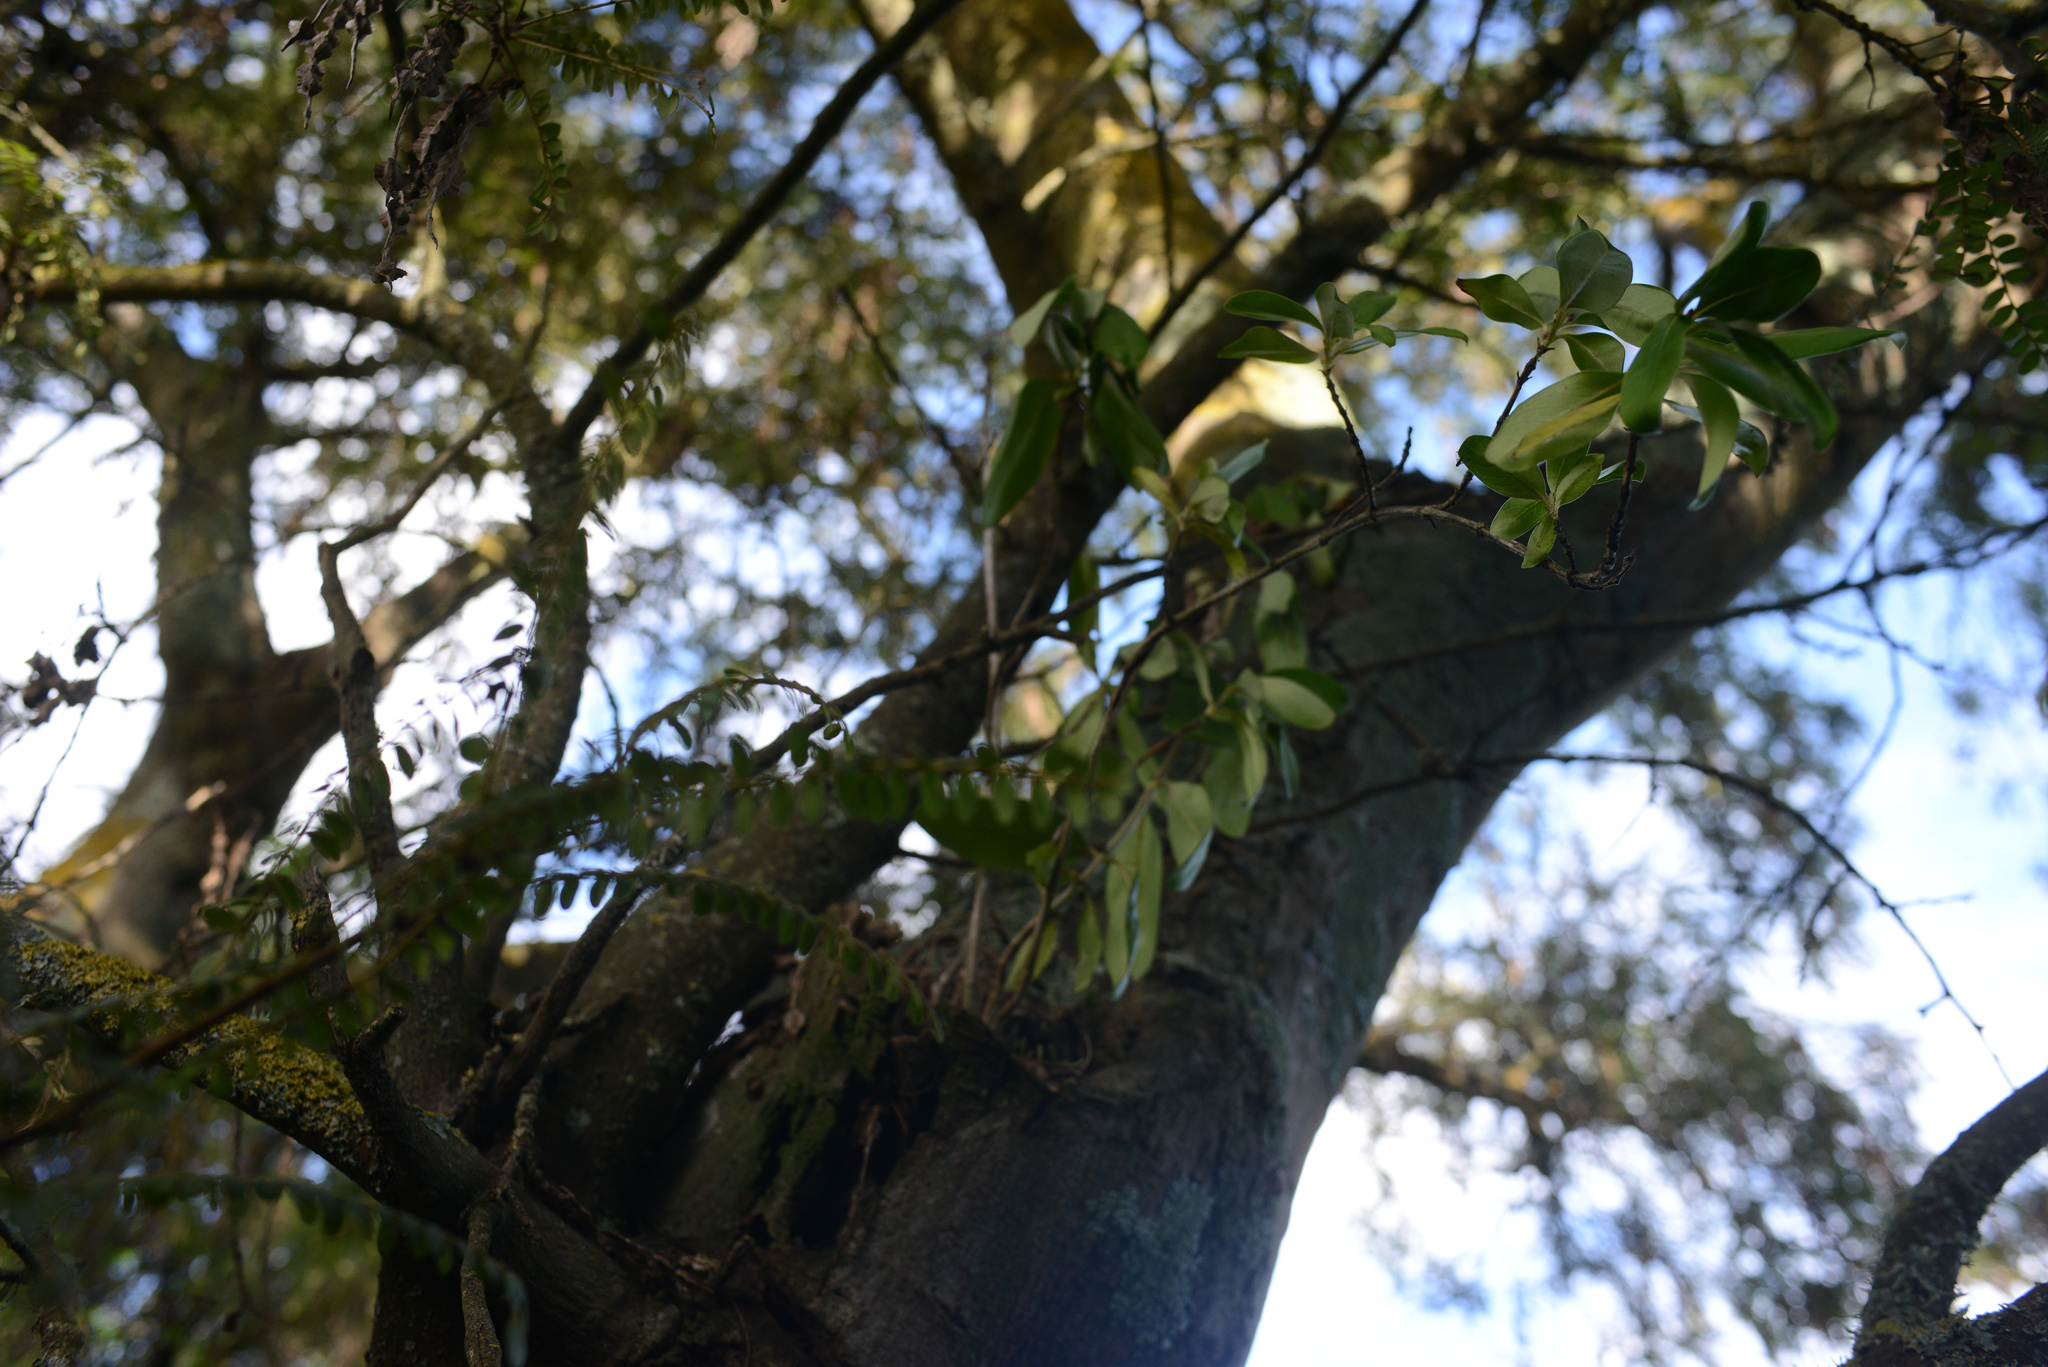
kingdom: Plantae
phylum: Tracheophyta
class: Magnoliopsida
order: Gentianales
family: Rubiaceae
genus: Coprosma
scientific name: Coprosma robusta
